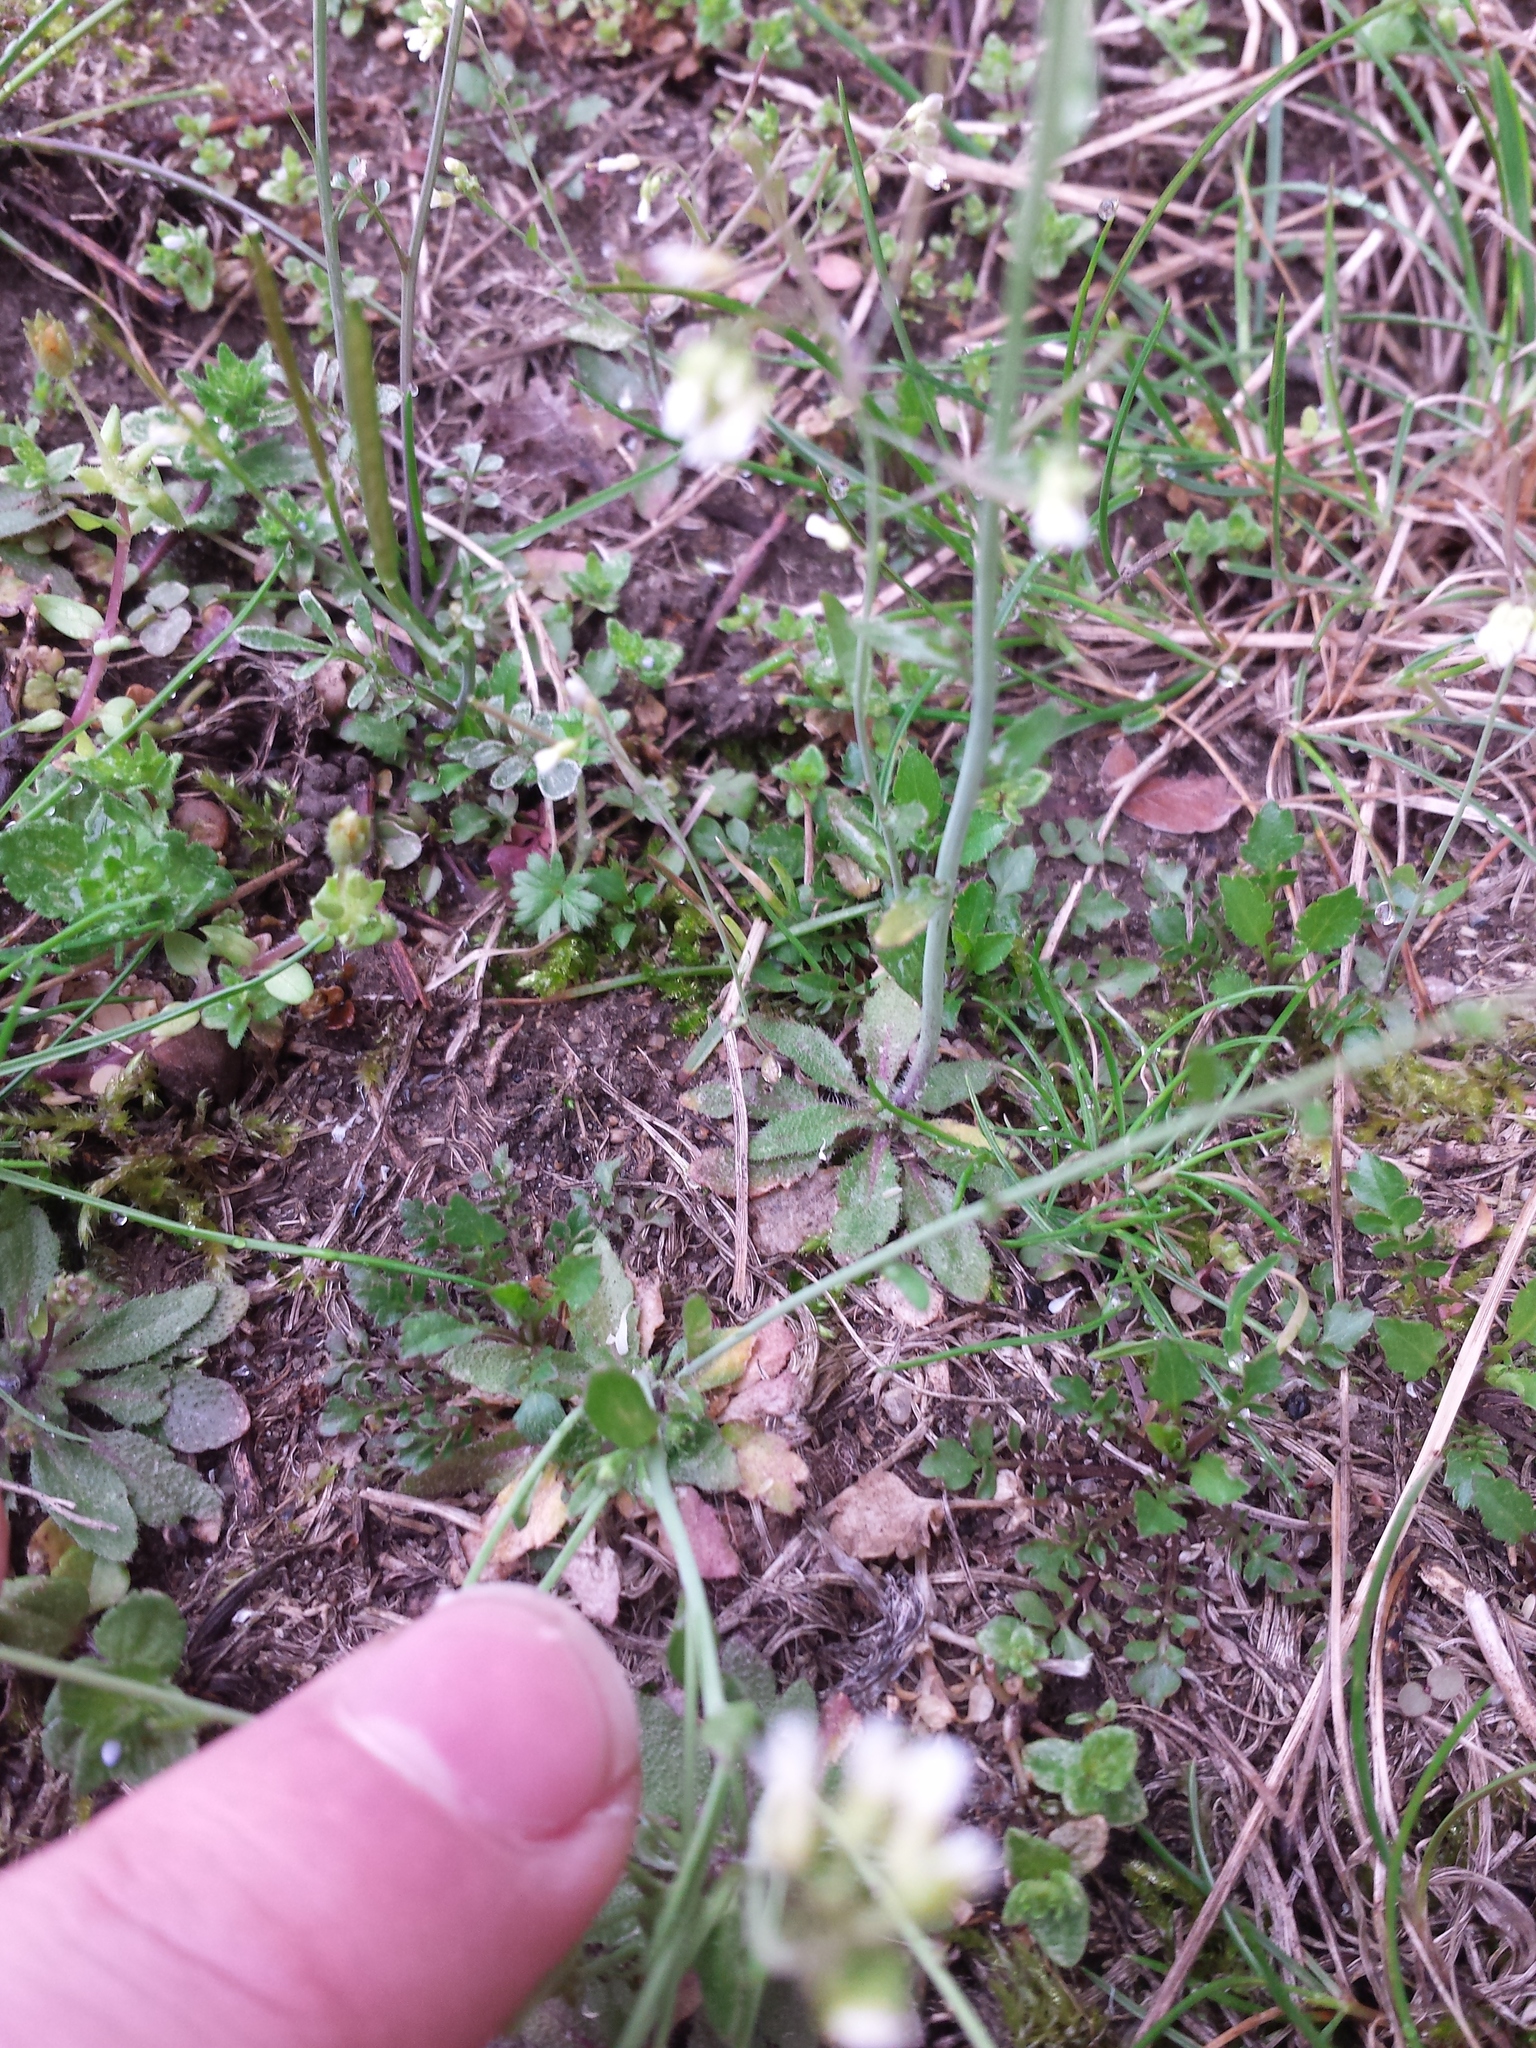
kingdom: Plantae
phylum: Tracheophyta
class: Magnoliopsida
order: Brassicales
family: Brassicaceae
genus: Arabidopsis
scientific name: Arabidopsis thaliana
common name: Thale cress
